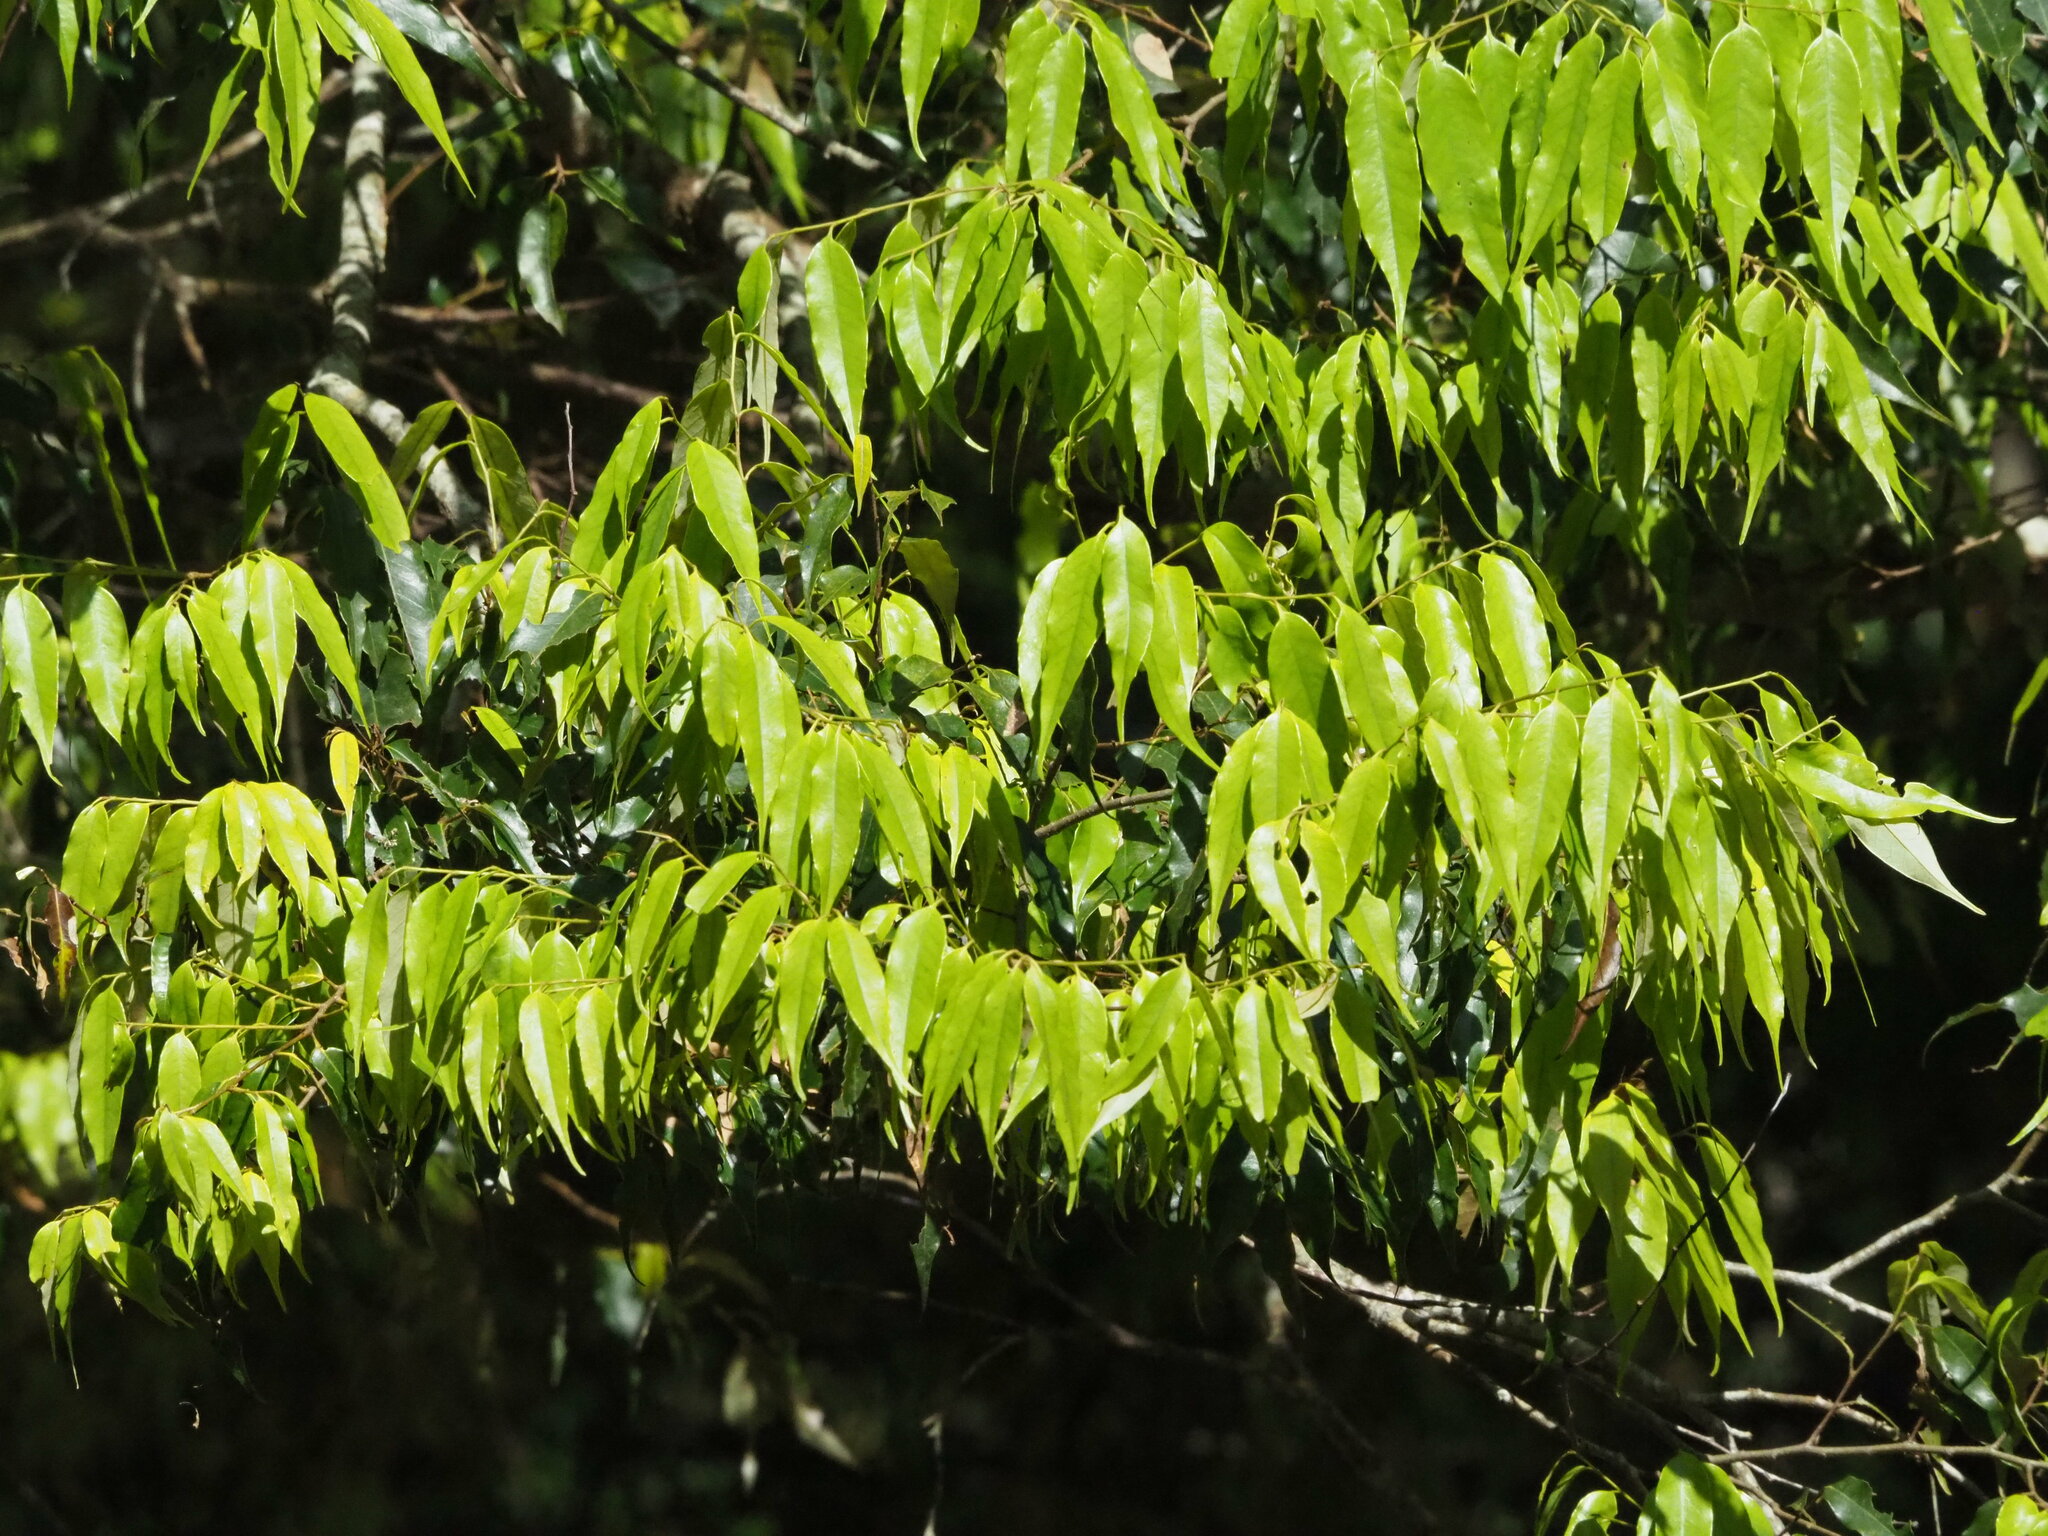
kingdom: Plantae
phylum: Tracheophyta
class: Magnoliopsida
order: Fagales
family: Fagaceae
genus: Castanopsis
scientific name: Castanopsis carlesii
